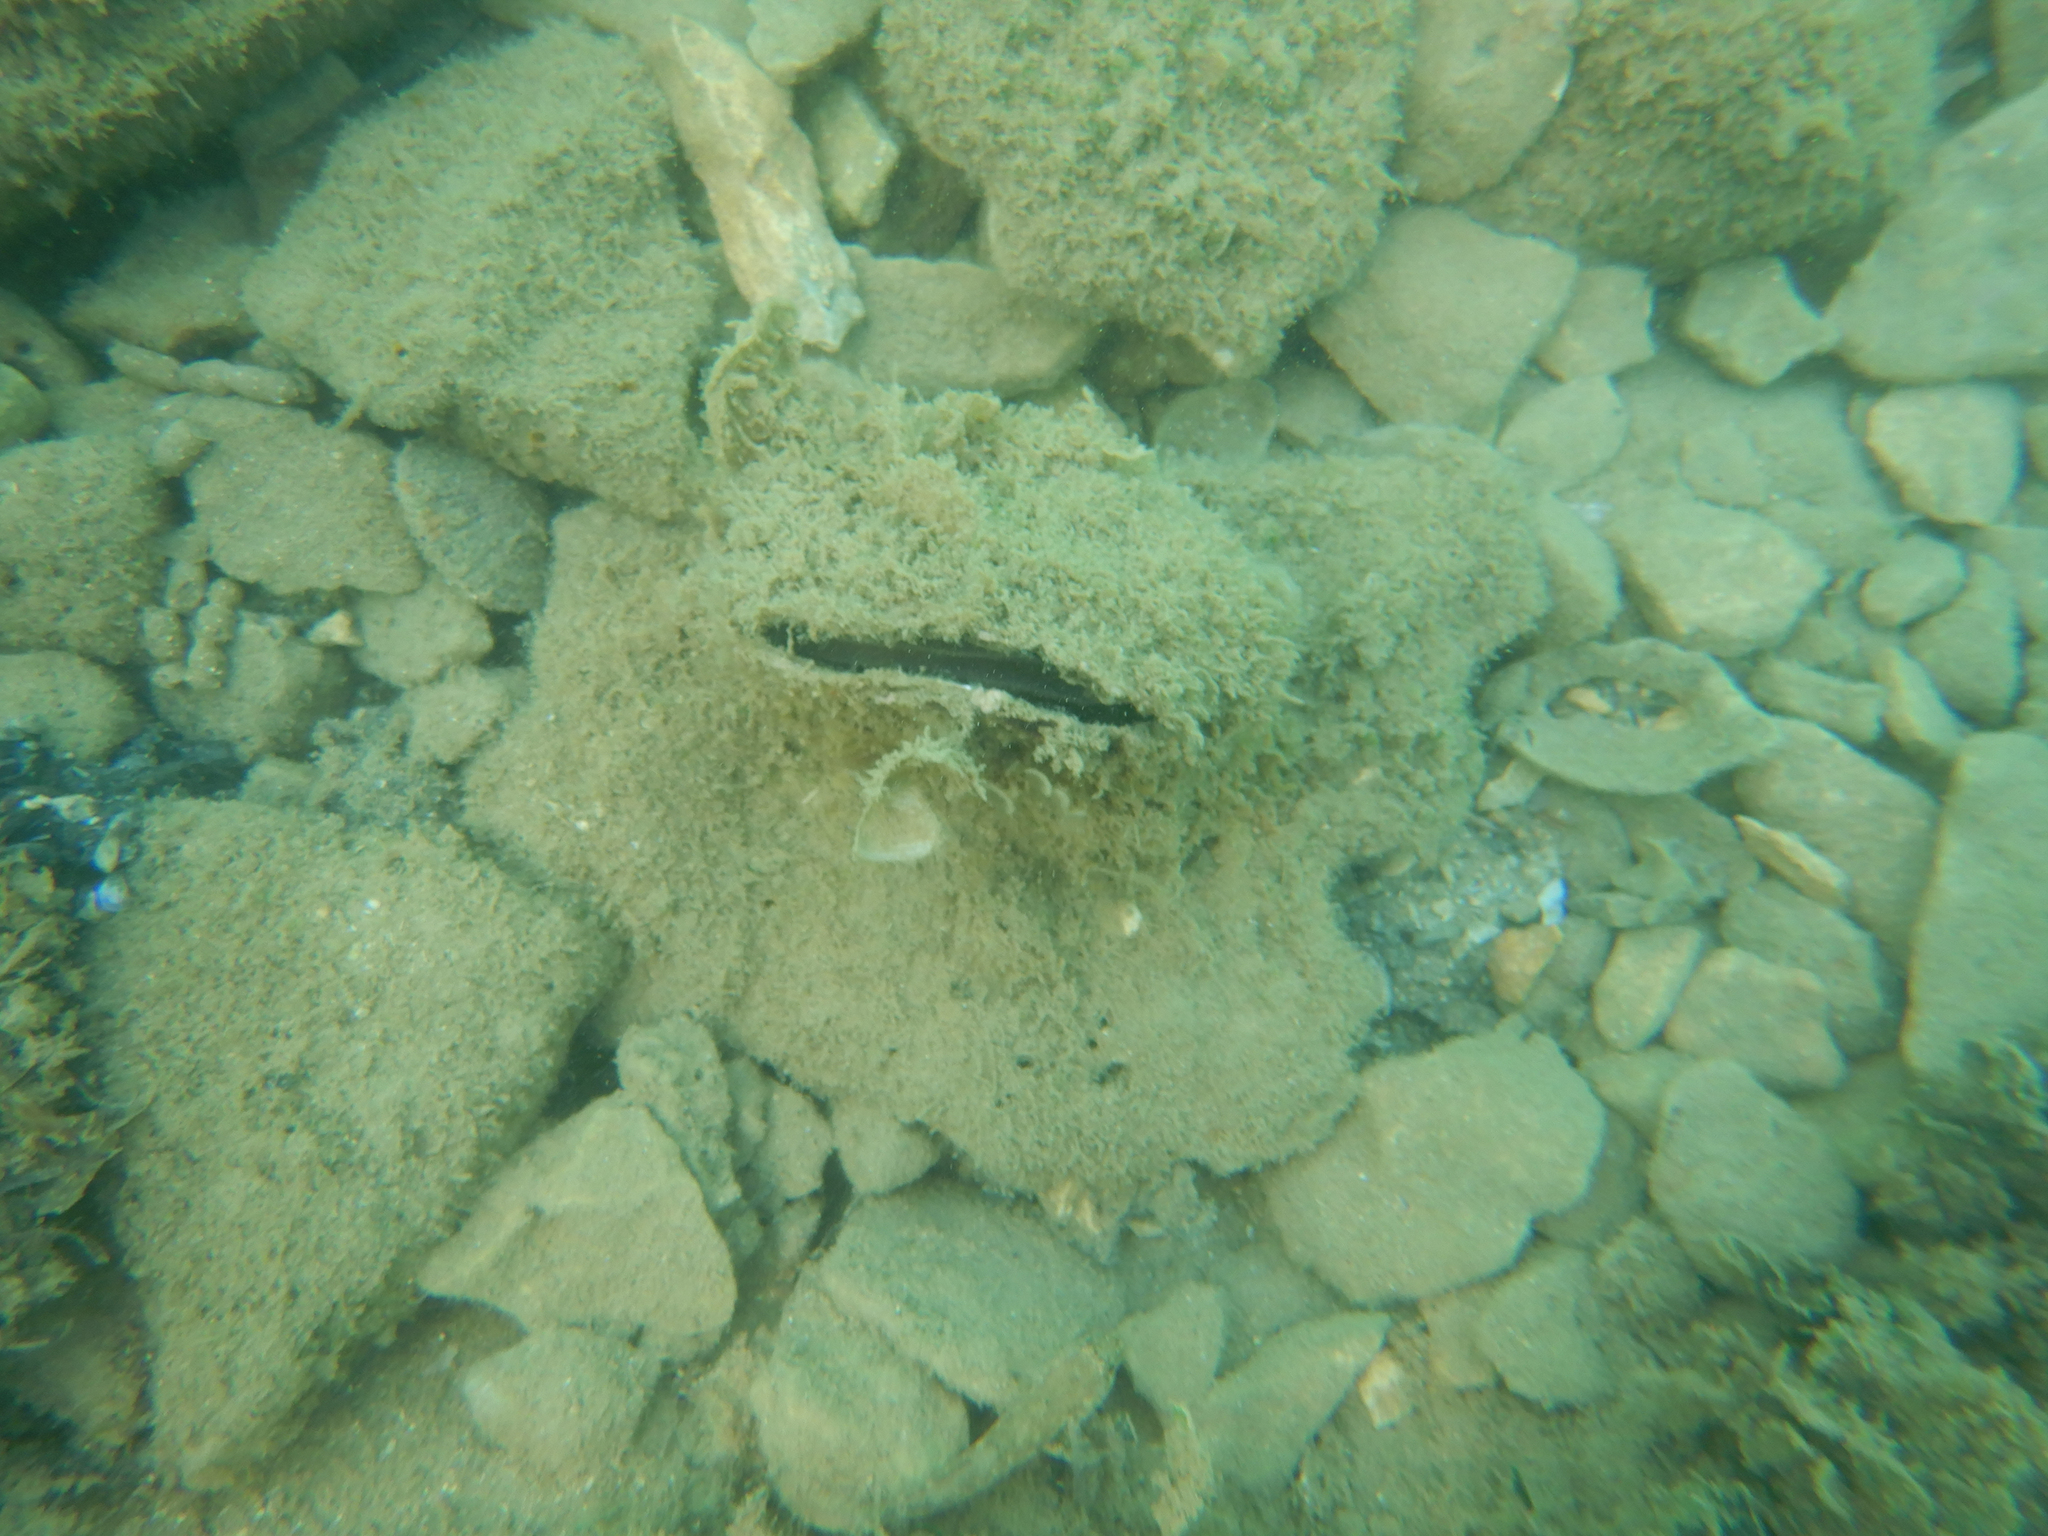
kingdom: Animalia
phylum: Mollusca
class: Bivalvia
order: Ostreida
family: Pinnidae
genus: Pinna
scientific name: Pinna nobilis
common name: Fan mussel
